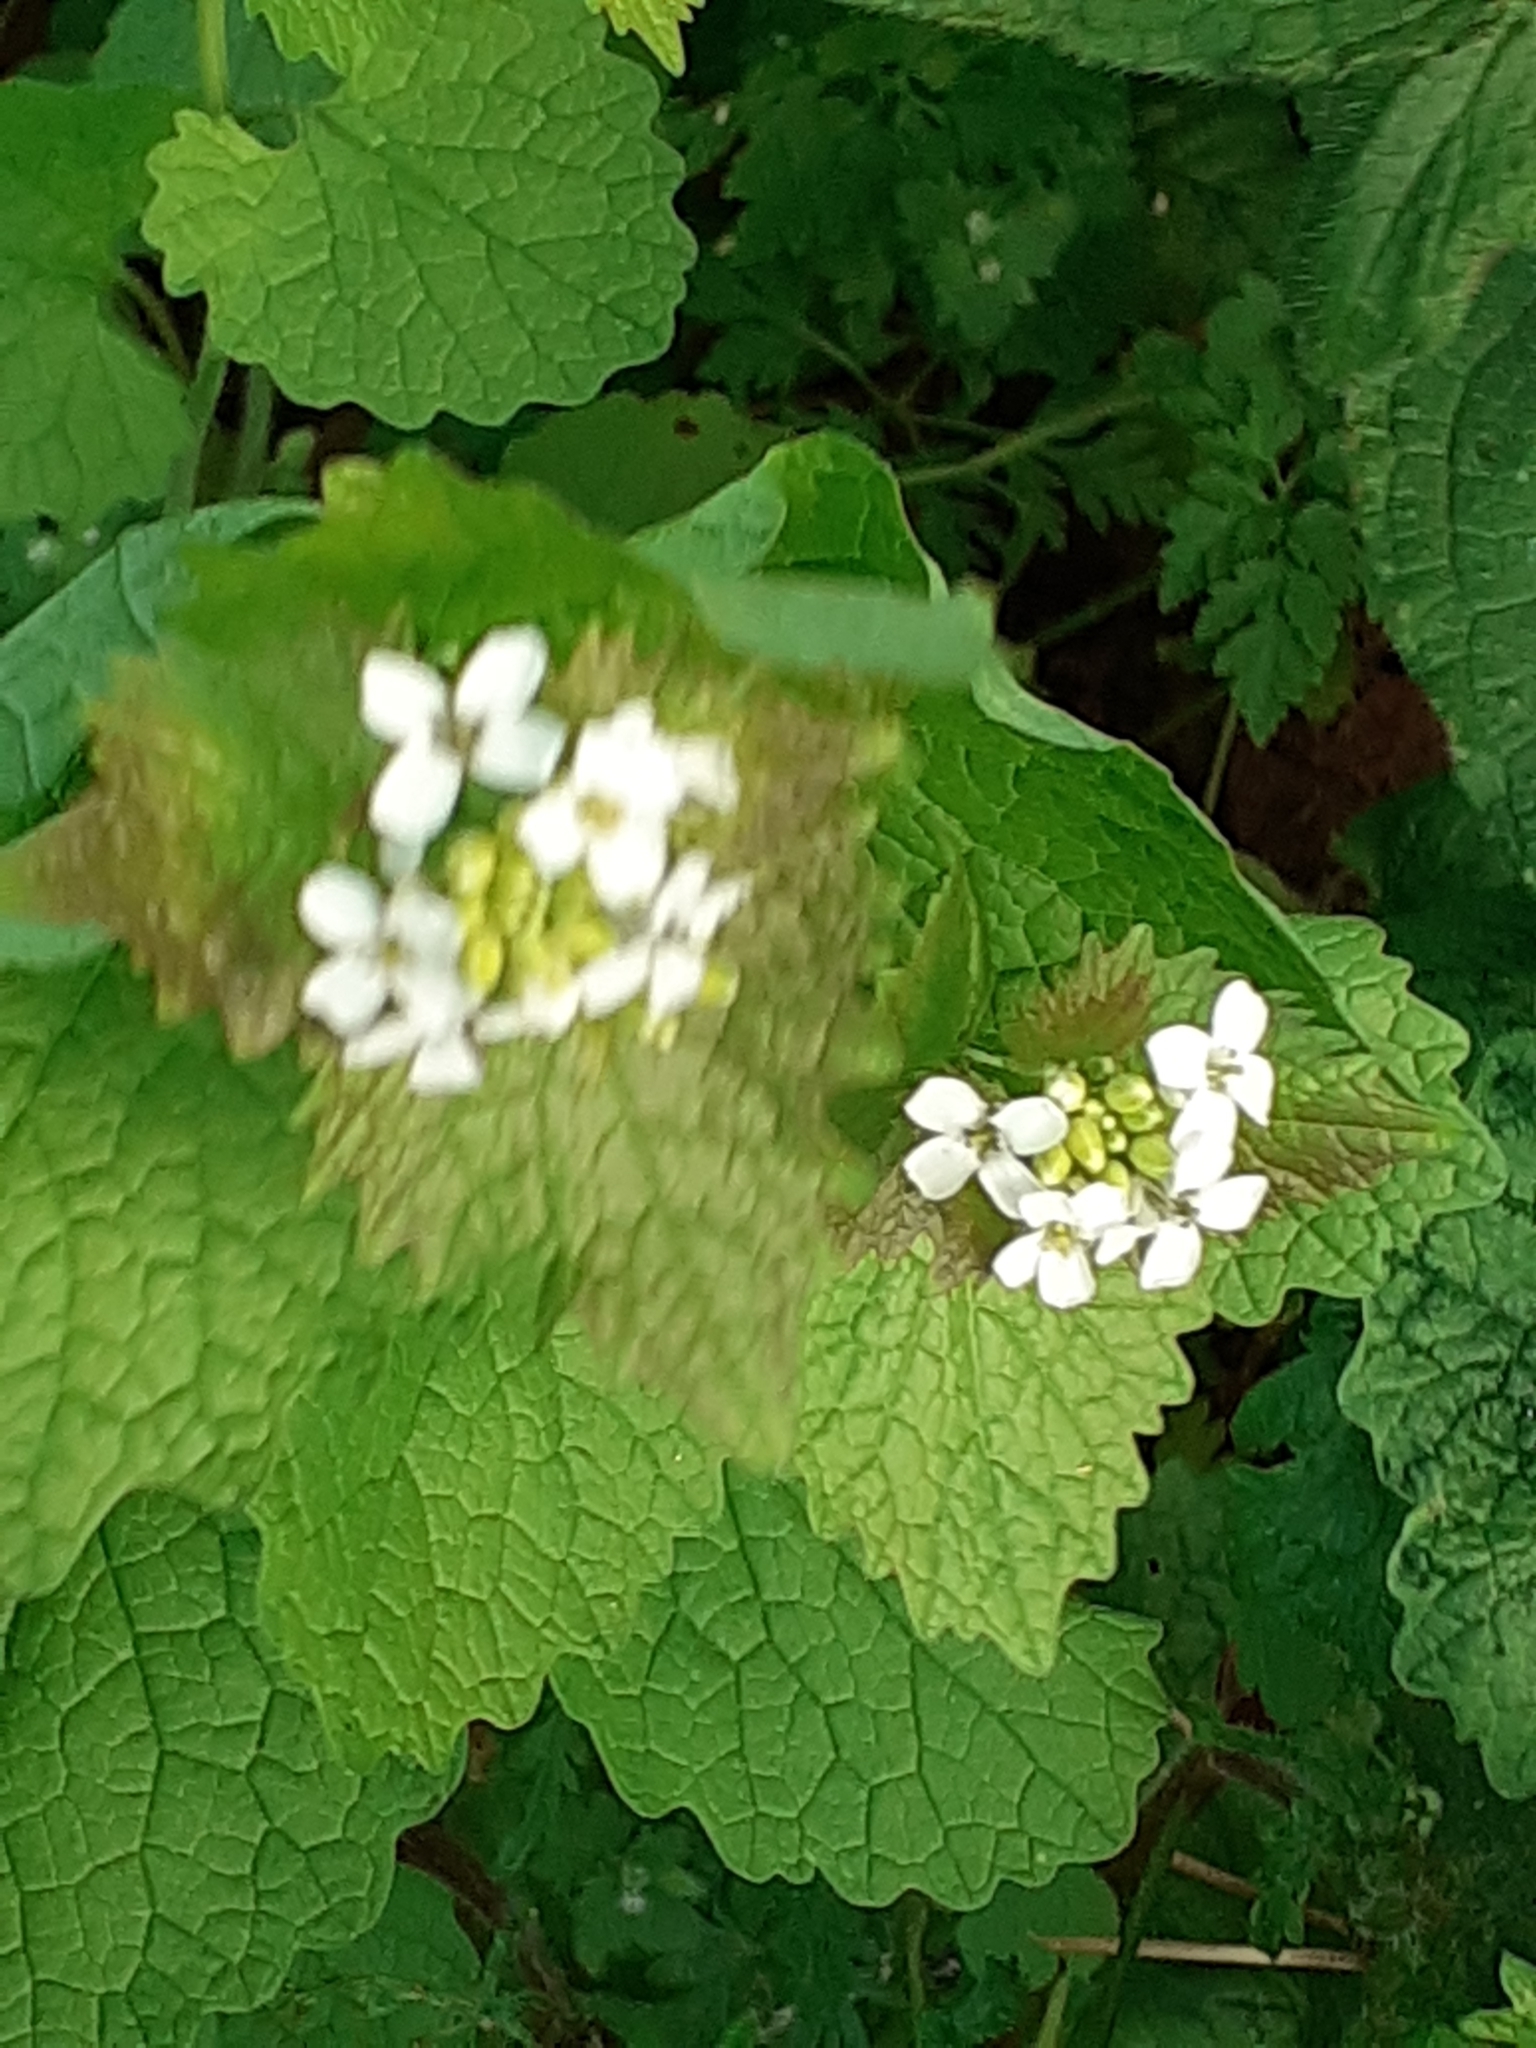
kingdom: Plantae
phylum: Tracheophyta
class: Magnoliopsida
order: Brassicales
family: Brassicaceae
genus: Alliaria
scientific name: Alliaria petiolata
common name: Garlic mustard
